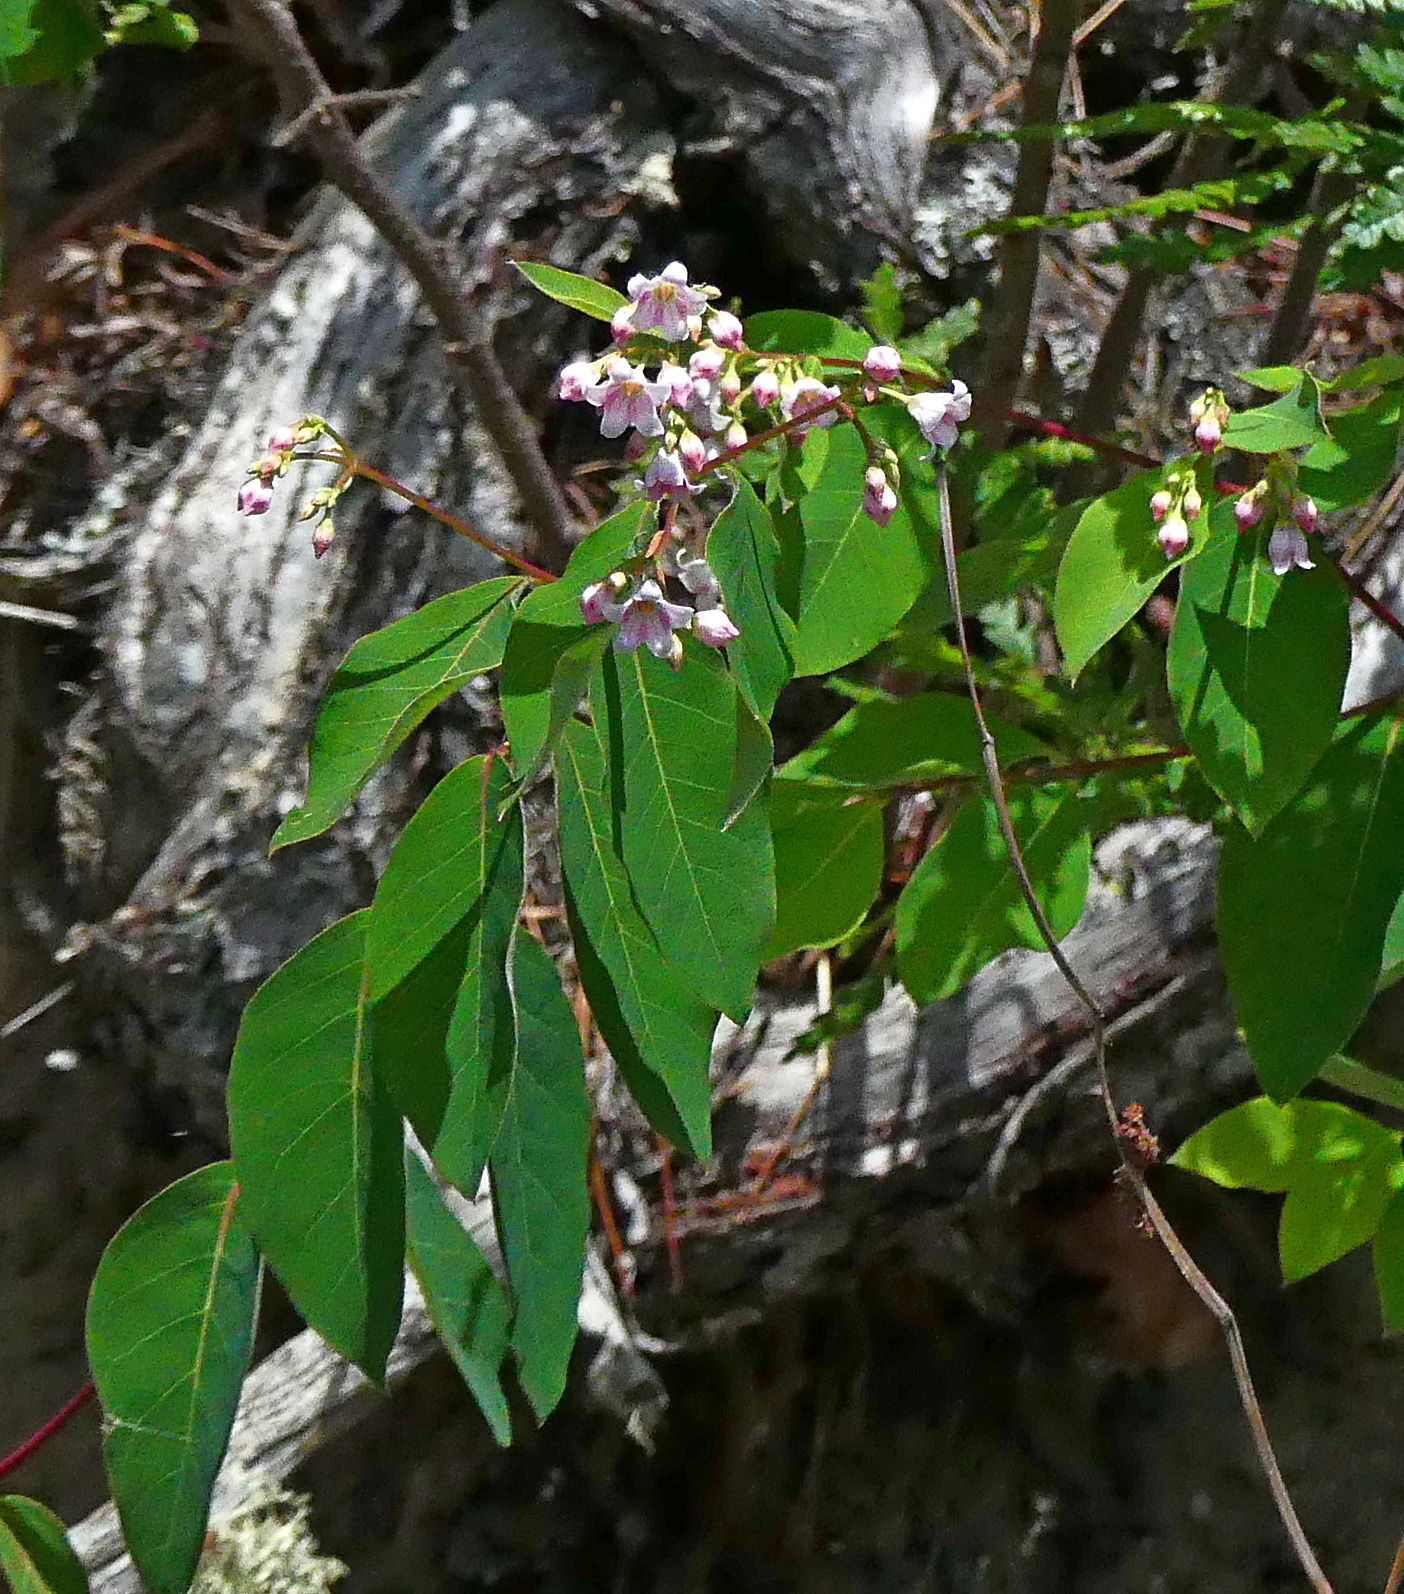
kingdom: Plantae
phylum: Tracheophyta
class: Magnoliopsida
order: Gentianales
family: Apocynaceae
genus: Apocynum
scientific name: Apocynum androsaemifolium
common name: Spreading dogbane
